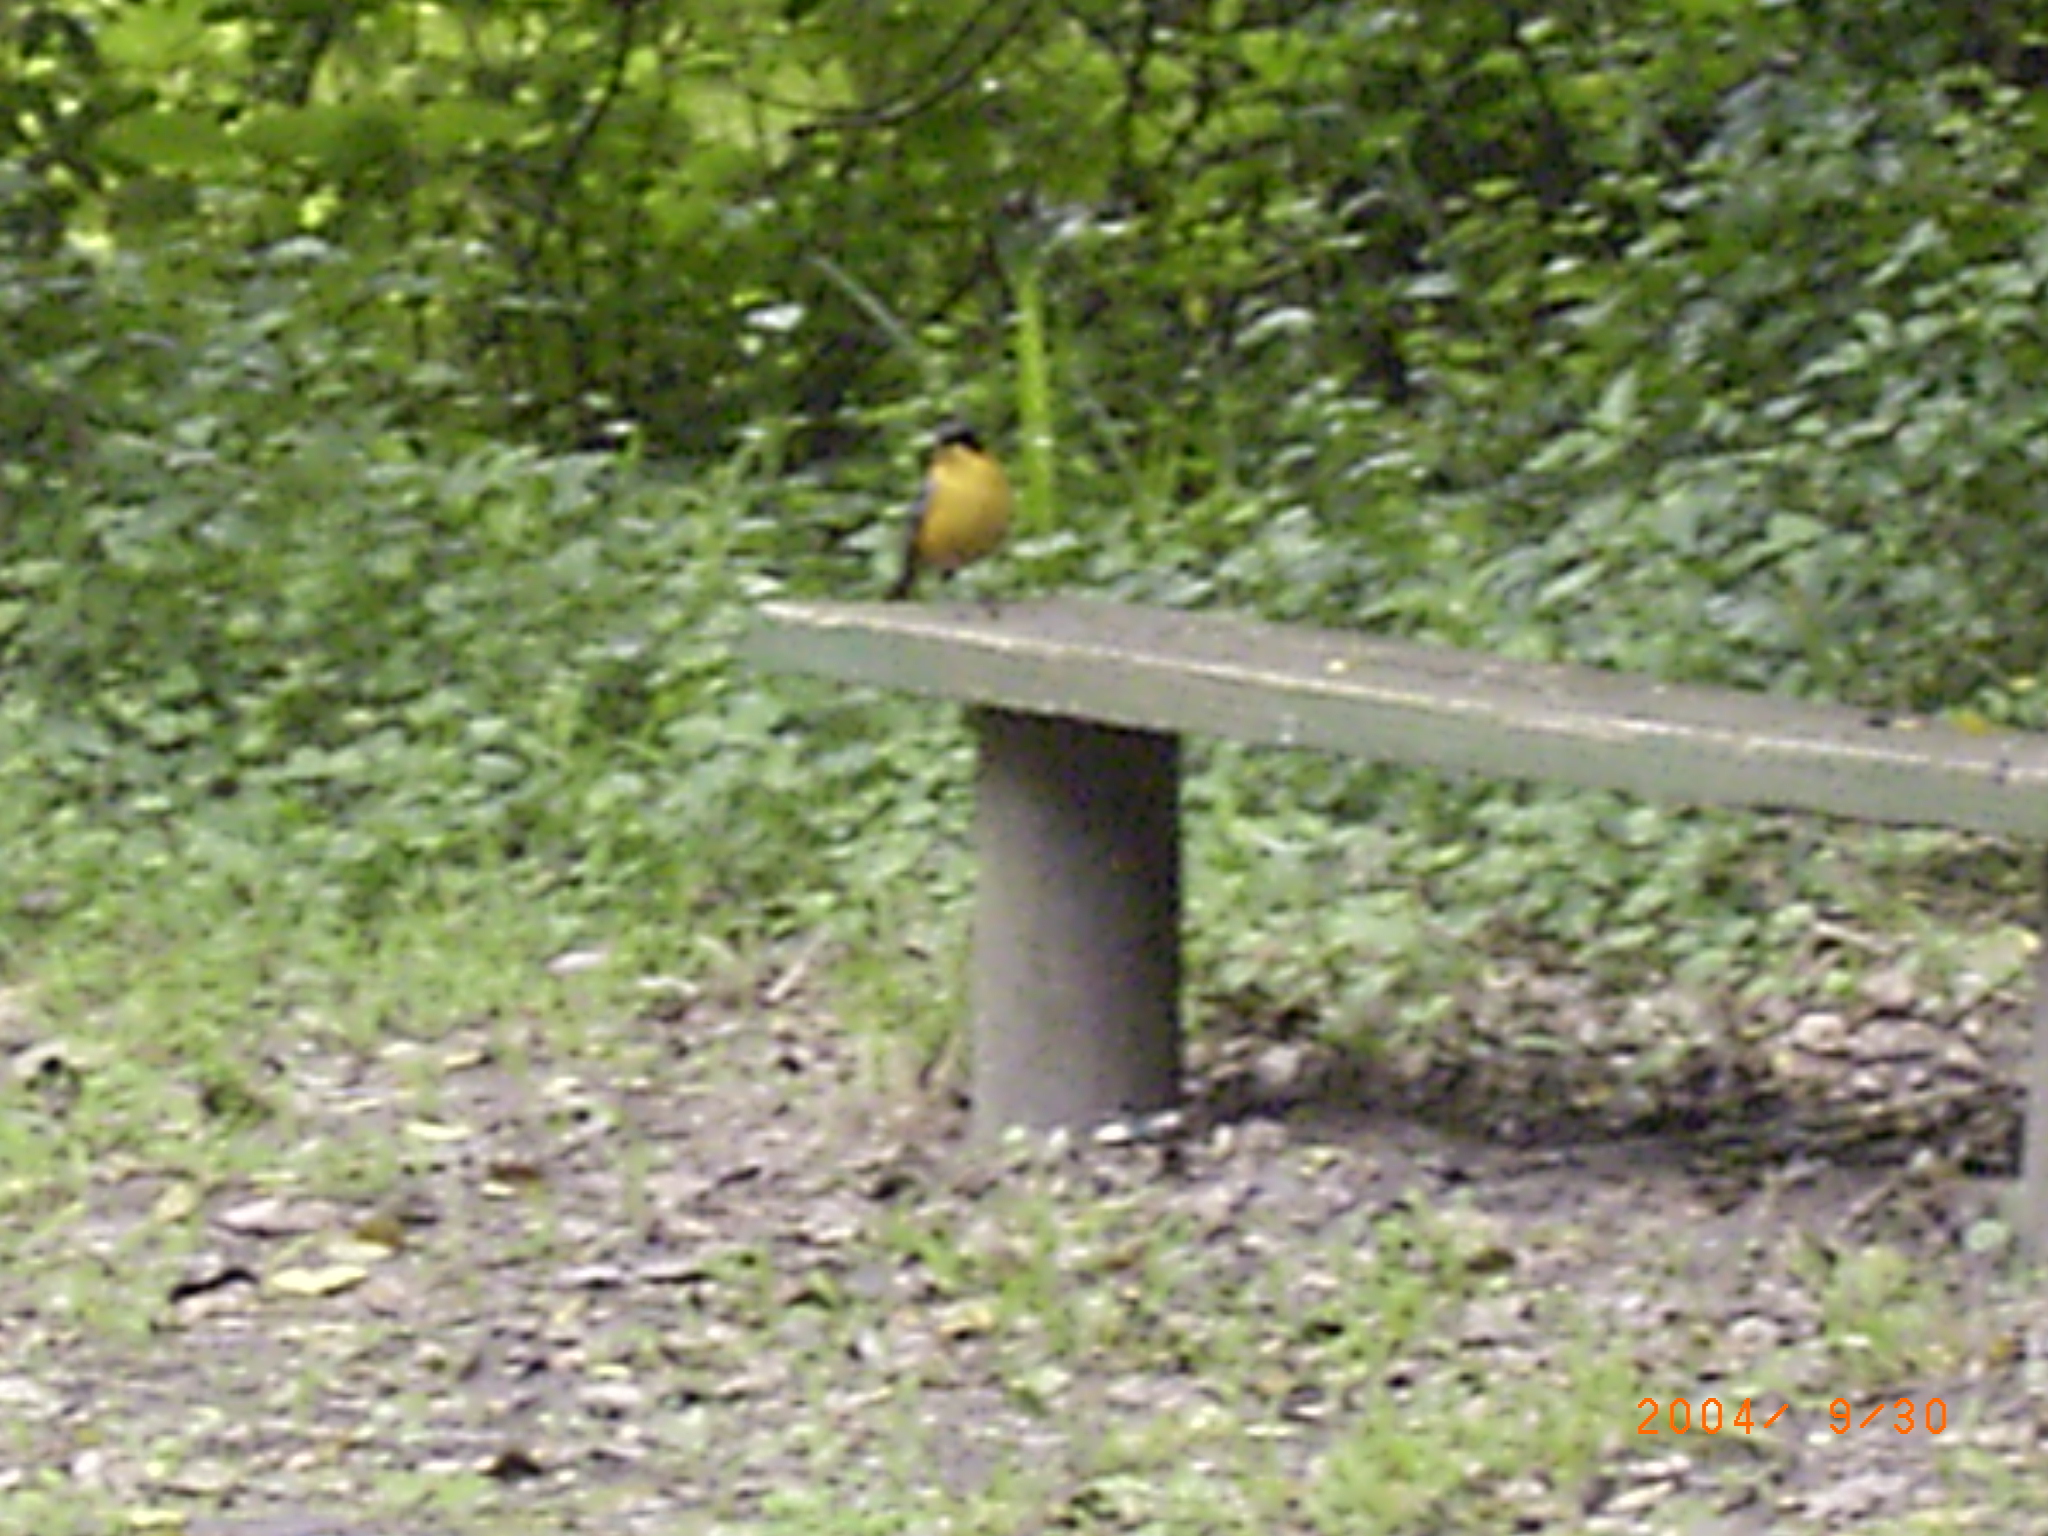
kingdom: Animalia
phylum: Chordata
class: Aves
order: Passeriformes
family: Muscicapidae
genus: Cossypha
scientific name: Cossypha dichroa
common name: Chorister robin-chat
